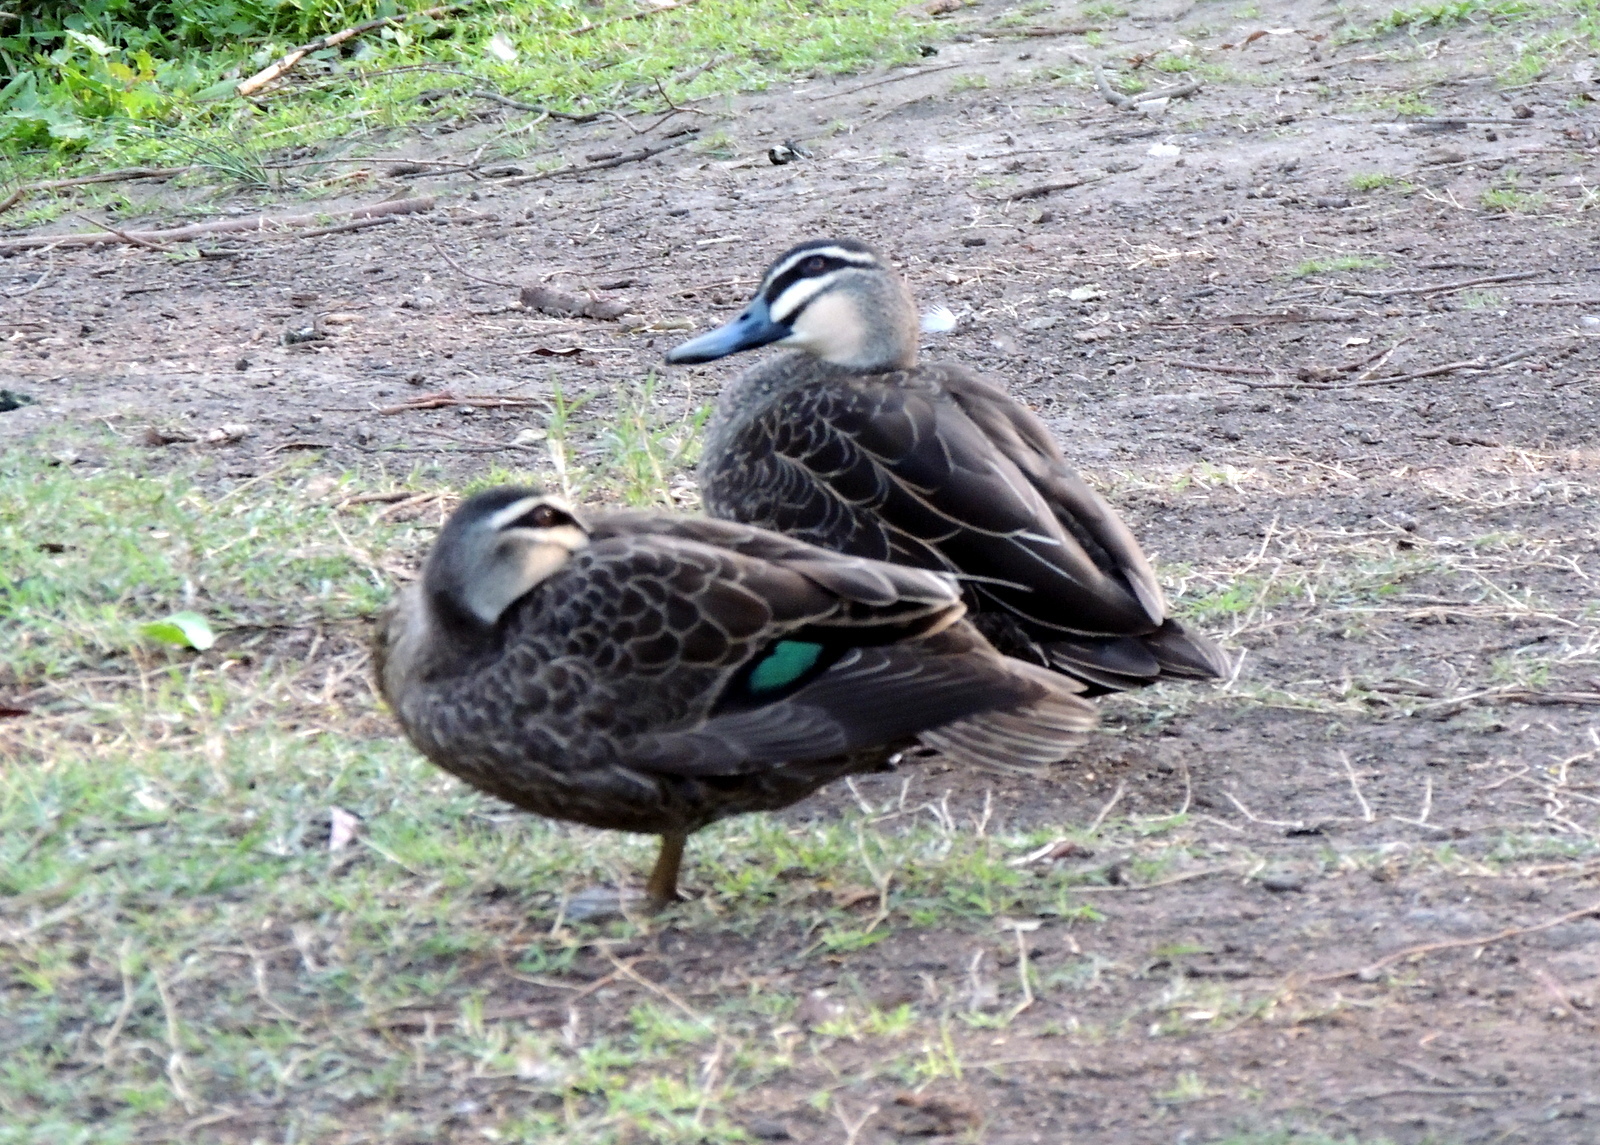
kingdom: Animalia
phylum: Chordata
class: Aves
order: Anseriformes
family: Anatidae
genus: Anas
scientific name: Anas superciliosa
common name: Pacific black duck
